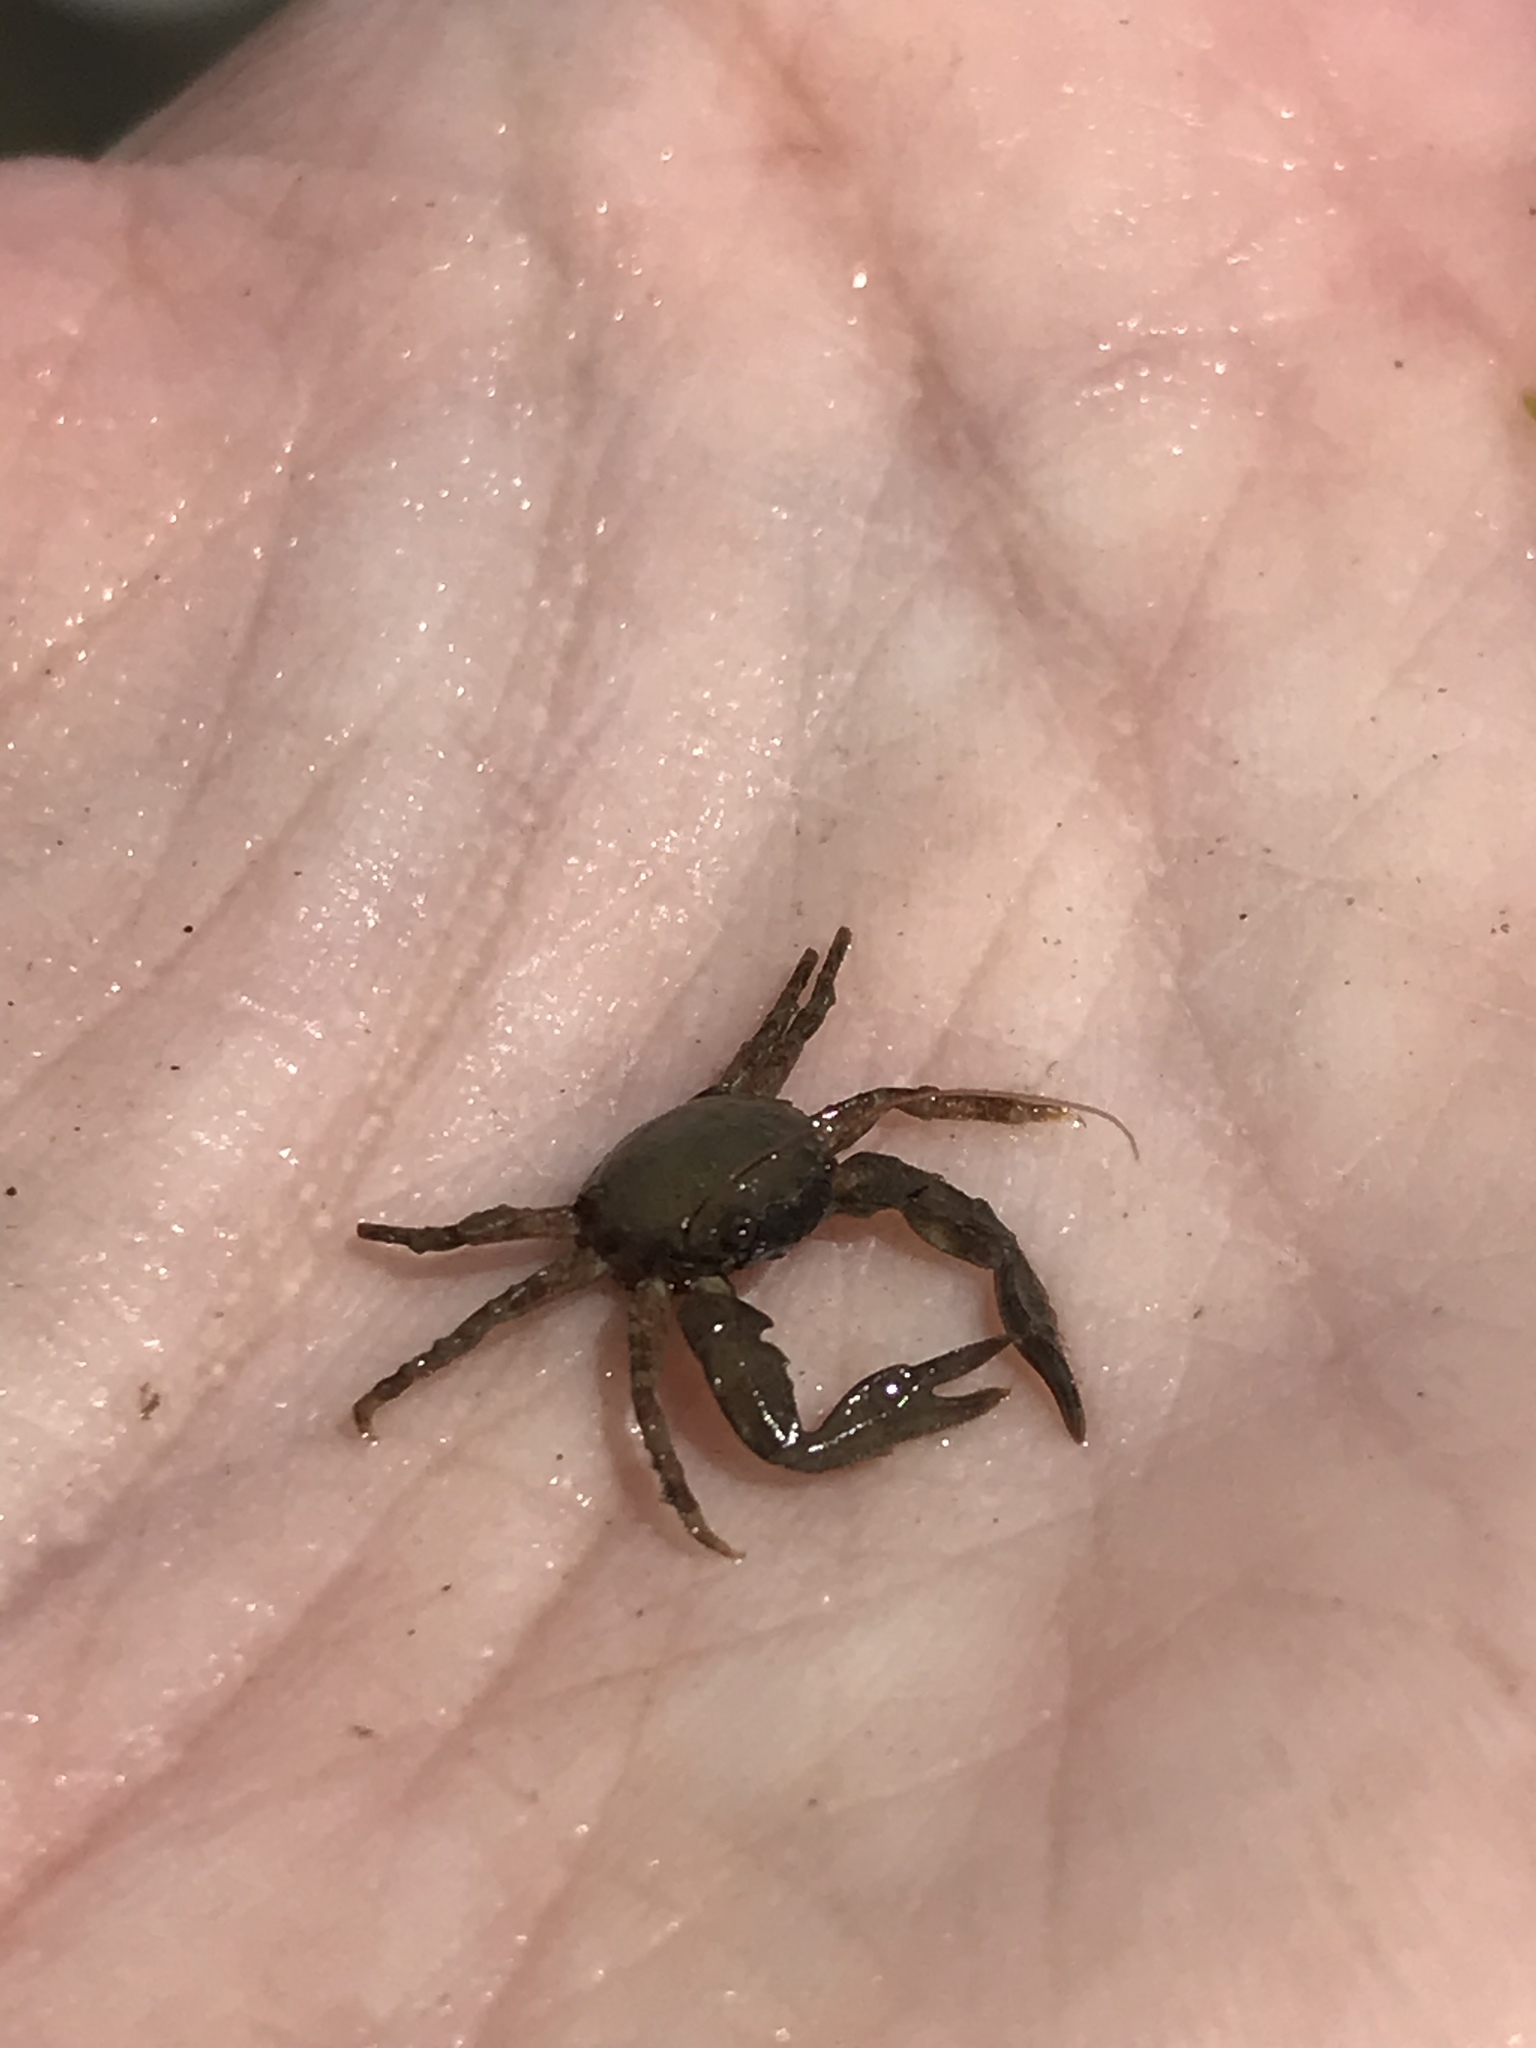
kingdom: Animalia
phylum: Arthropoda
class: Malacostraca
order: Decapoda
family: Porcellanidae
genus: Pisidia
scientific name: Pisidia longicornis
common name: Long clawed porcelain crab
